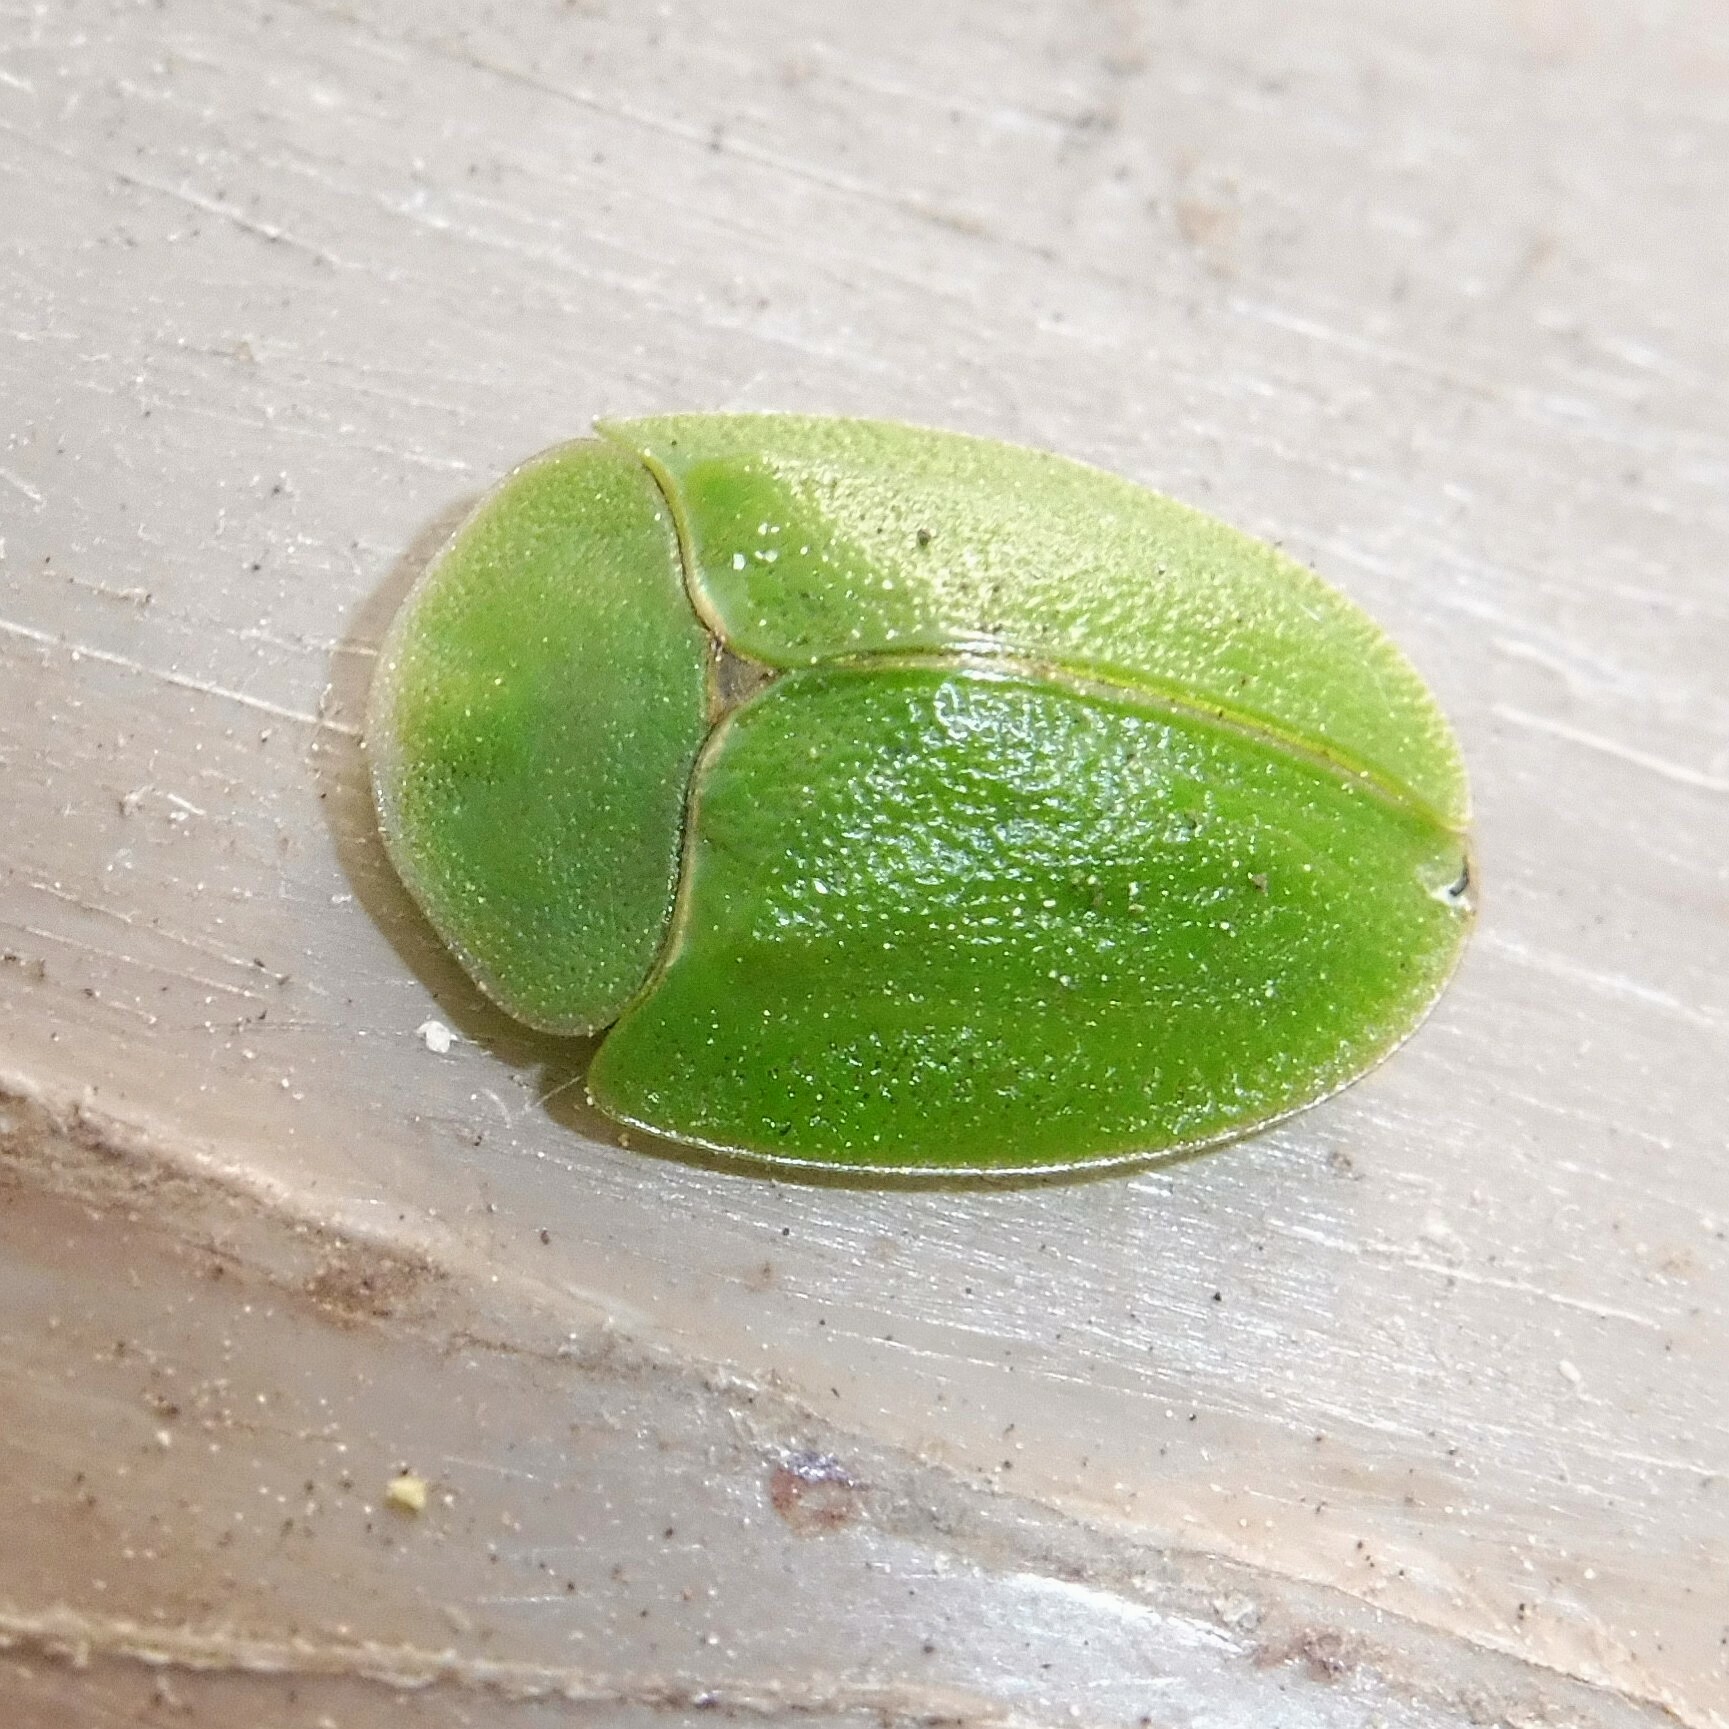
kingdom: Animalia
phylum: Arthropoda
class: Insecta
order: Coleoptera
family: Chrysomelidae
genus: Cassida
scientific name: Cassida viridis
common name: Green tortoise beetle
